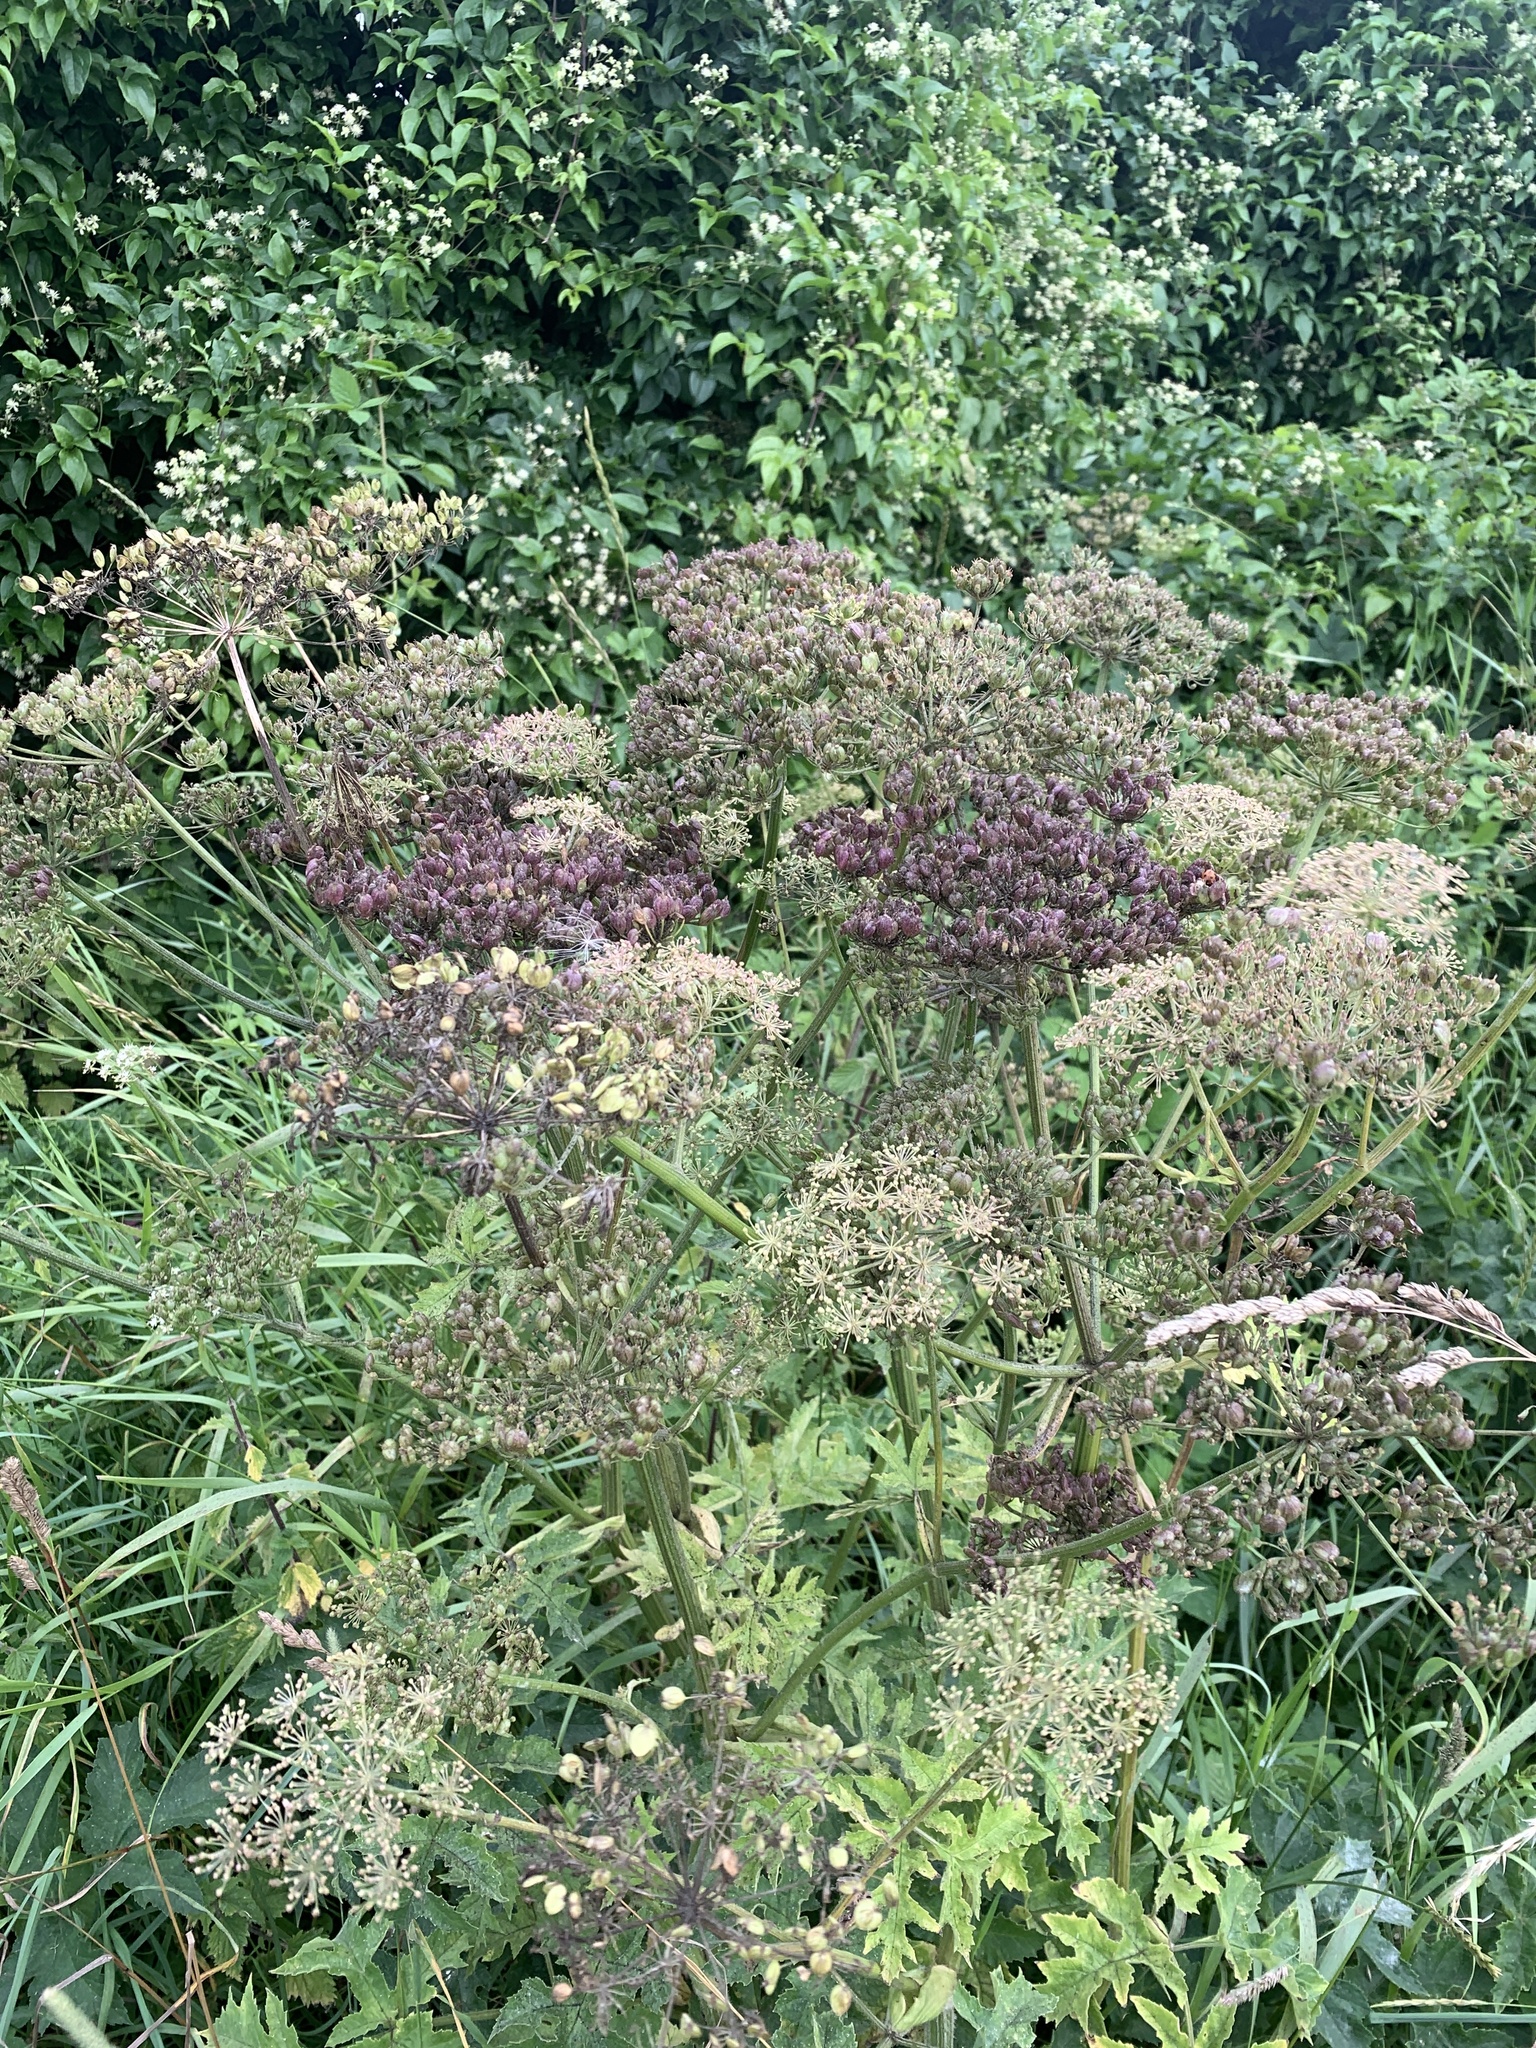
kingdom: Plantae
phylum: Tracheophyta
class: Magnoliopsida
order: Apiales
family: Apiaceae
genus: Heracleum
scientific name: Heracleum sphondylium
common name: Hogweed
